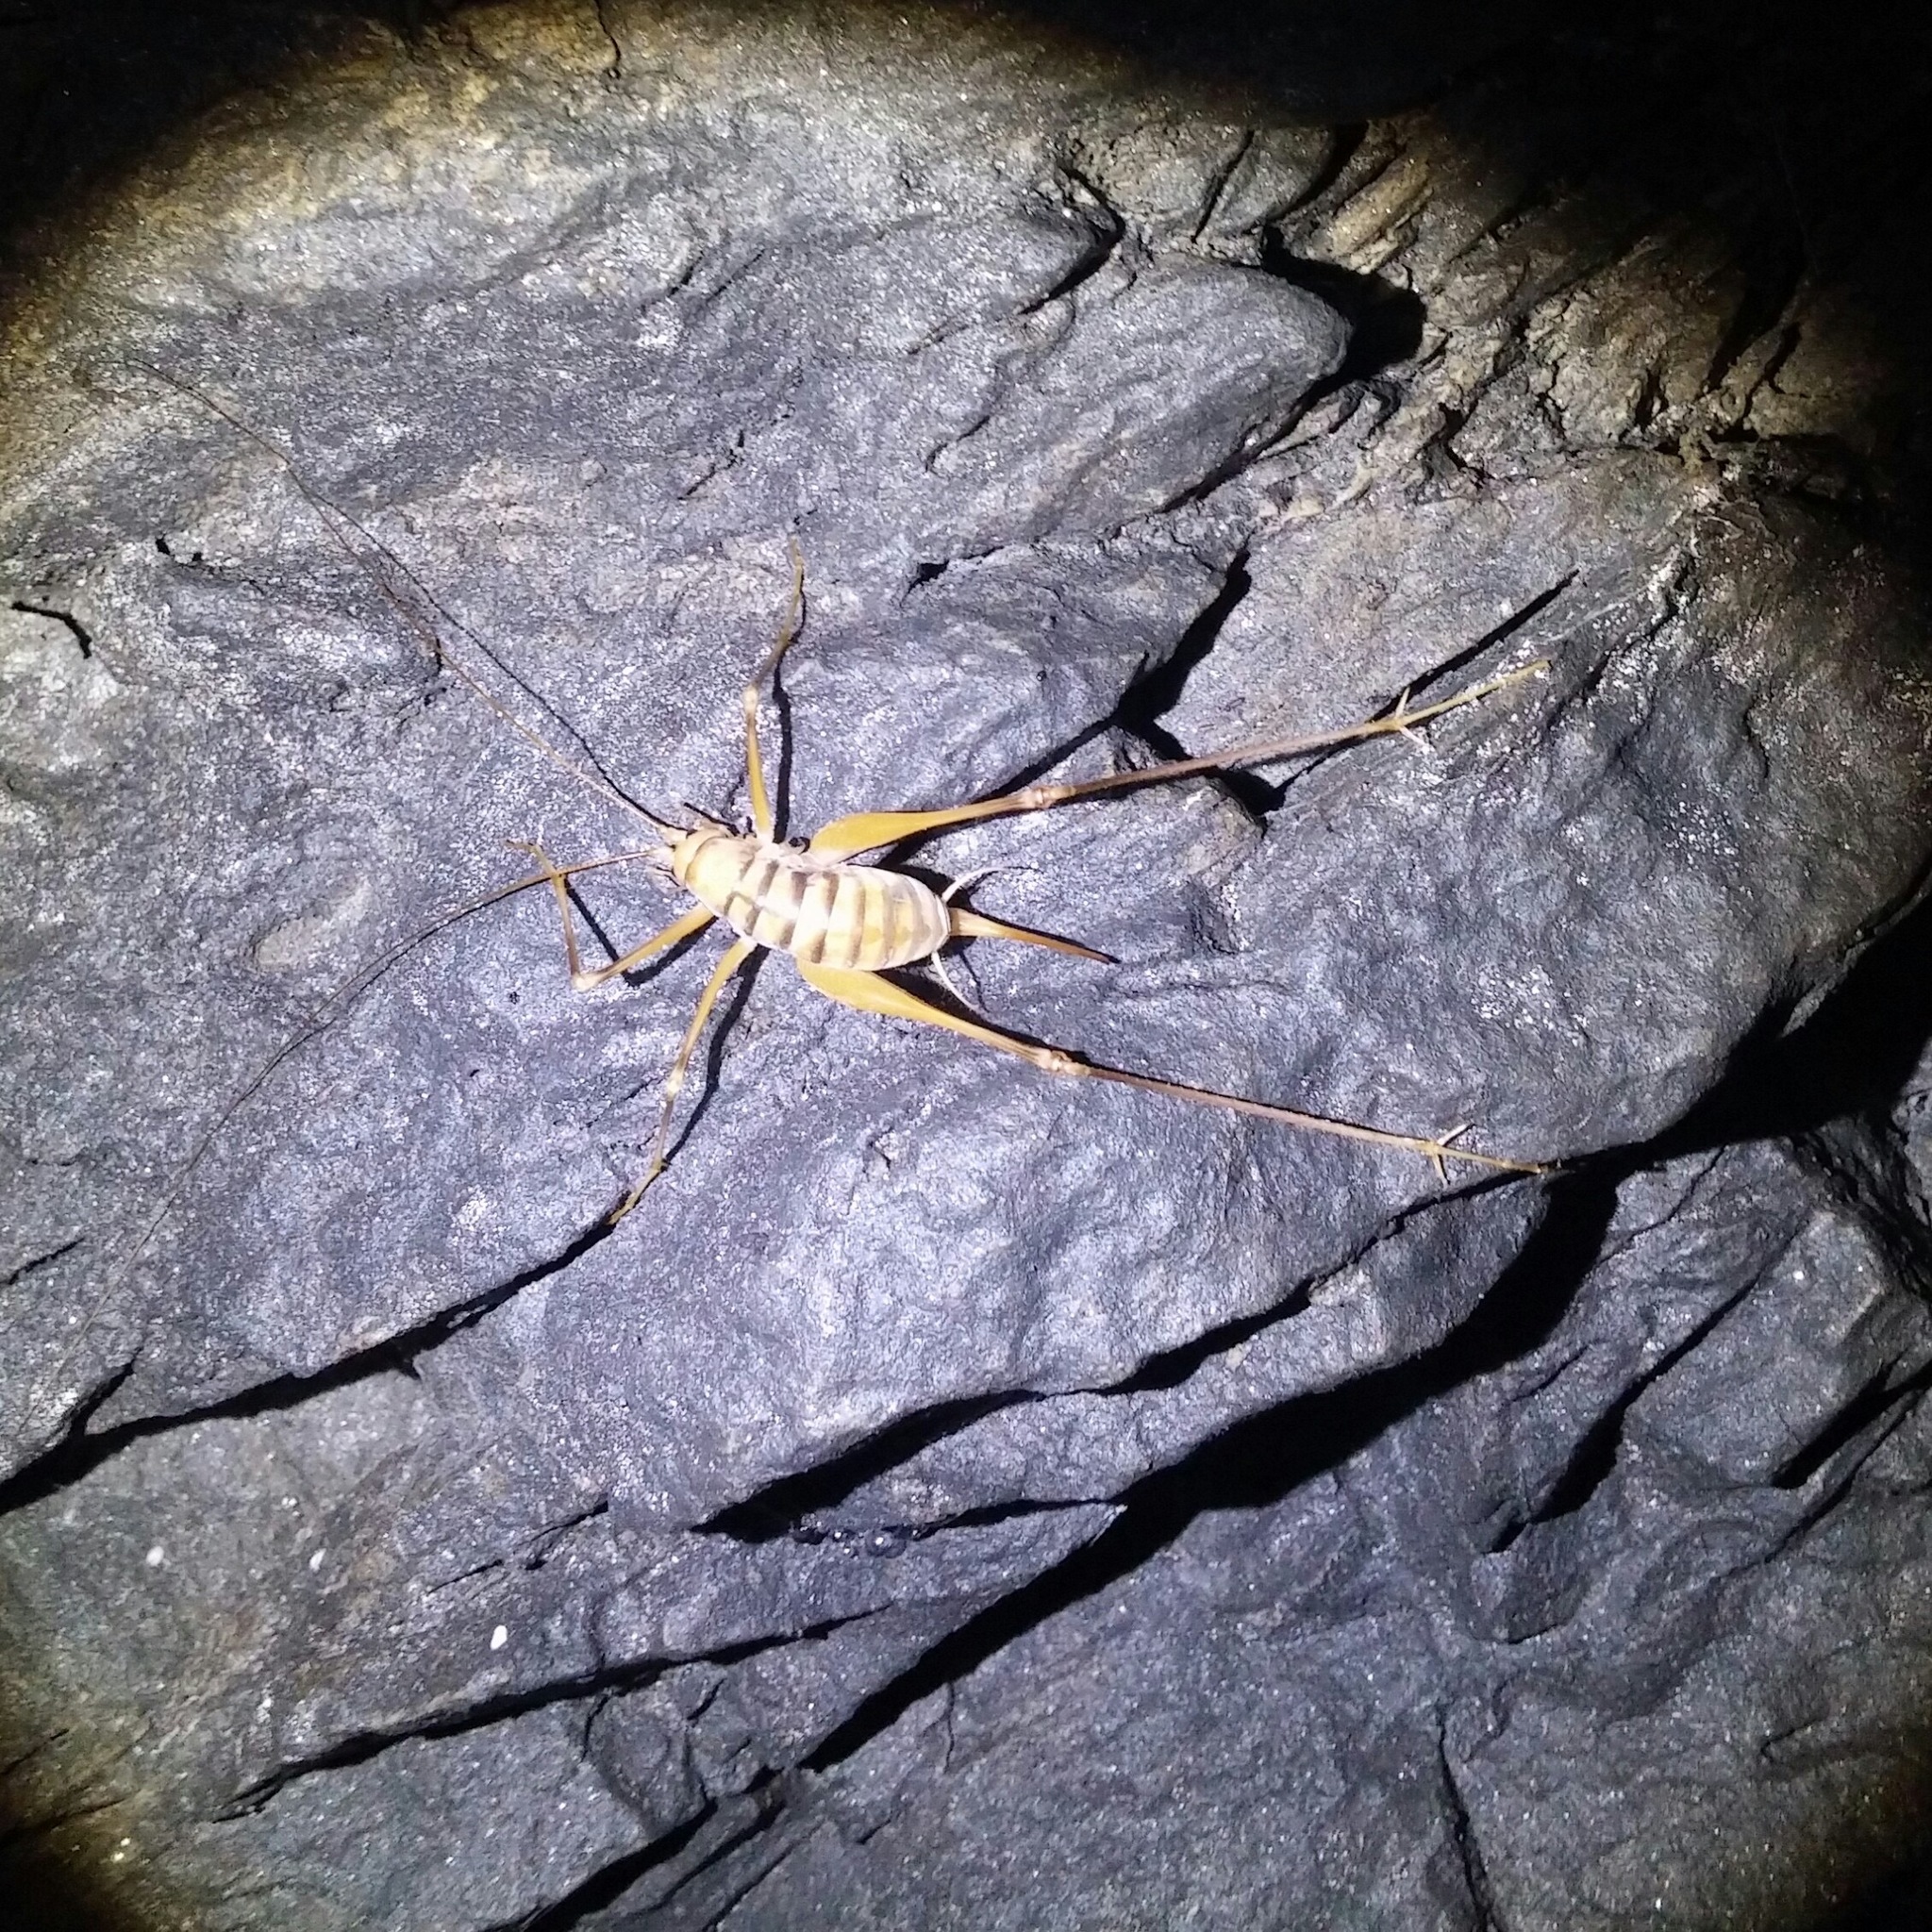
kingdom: Animalia
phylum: Arthropoda
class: Insecta
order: Orthoptera
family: Rhaphidophoridae
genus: Dolichopoda
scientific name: Dolichopoda laetitiae
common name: Laetitia's cave cricket
